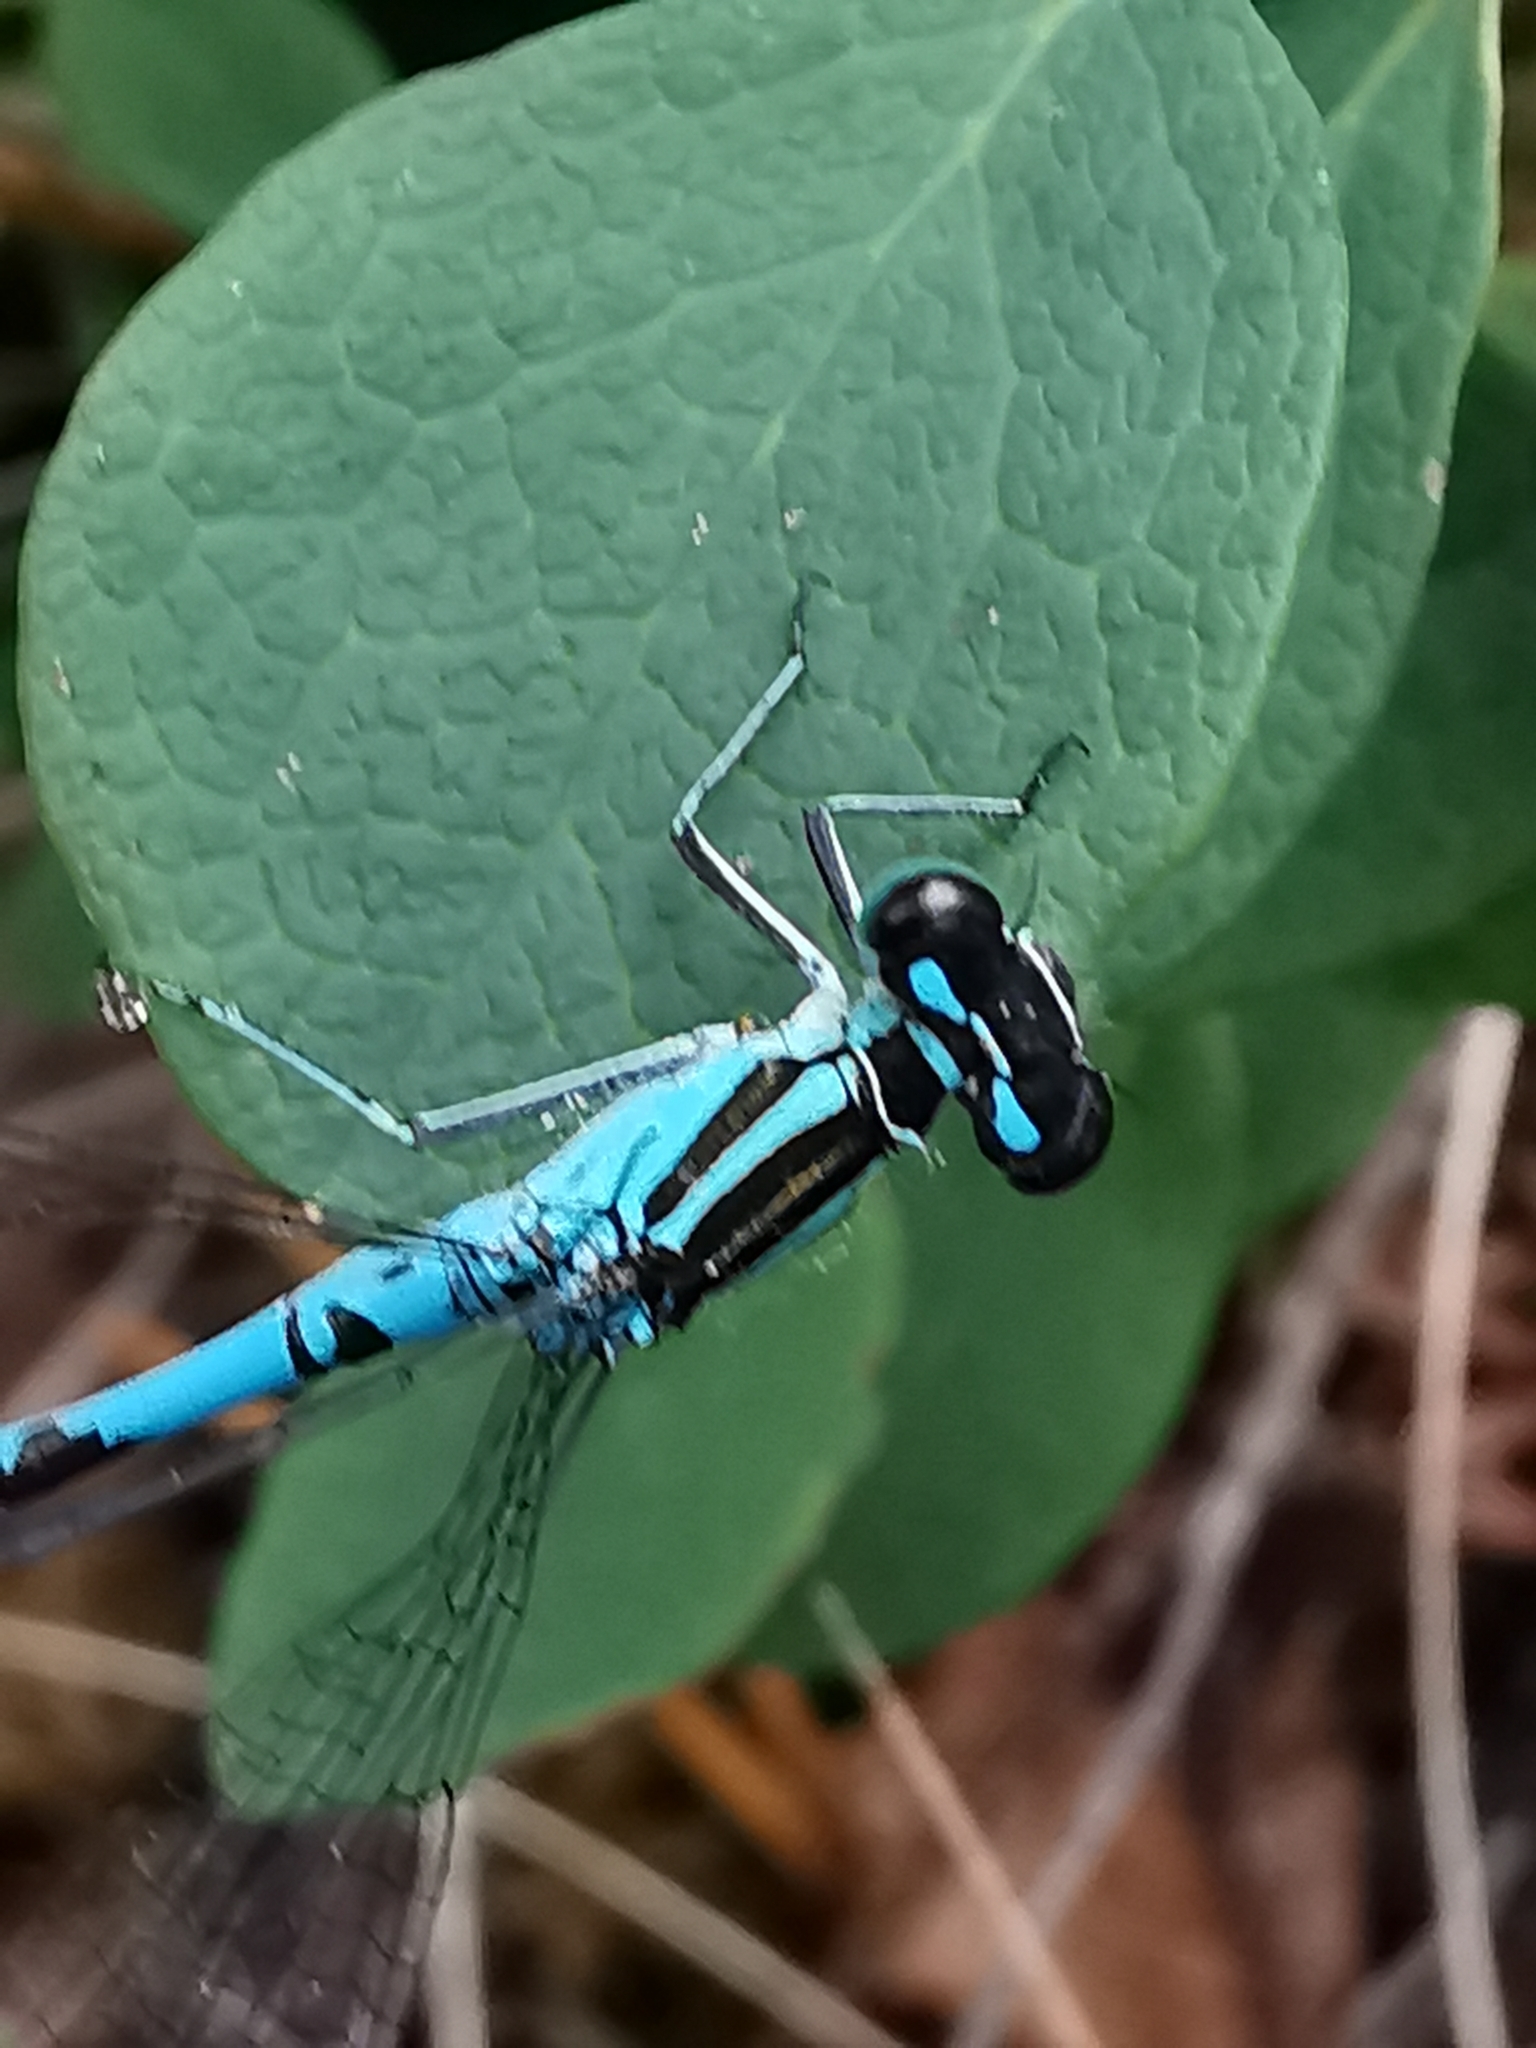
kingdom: Animalia
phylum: Arthropoda
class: Insecta
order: Odonata
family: Coenagrionidae
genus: Coenagrion
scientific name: Coenagrion hastulatum
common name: Spearhead bluet
